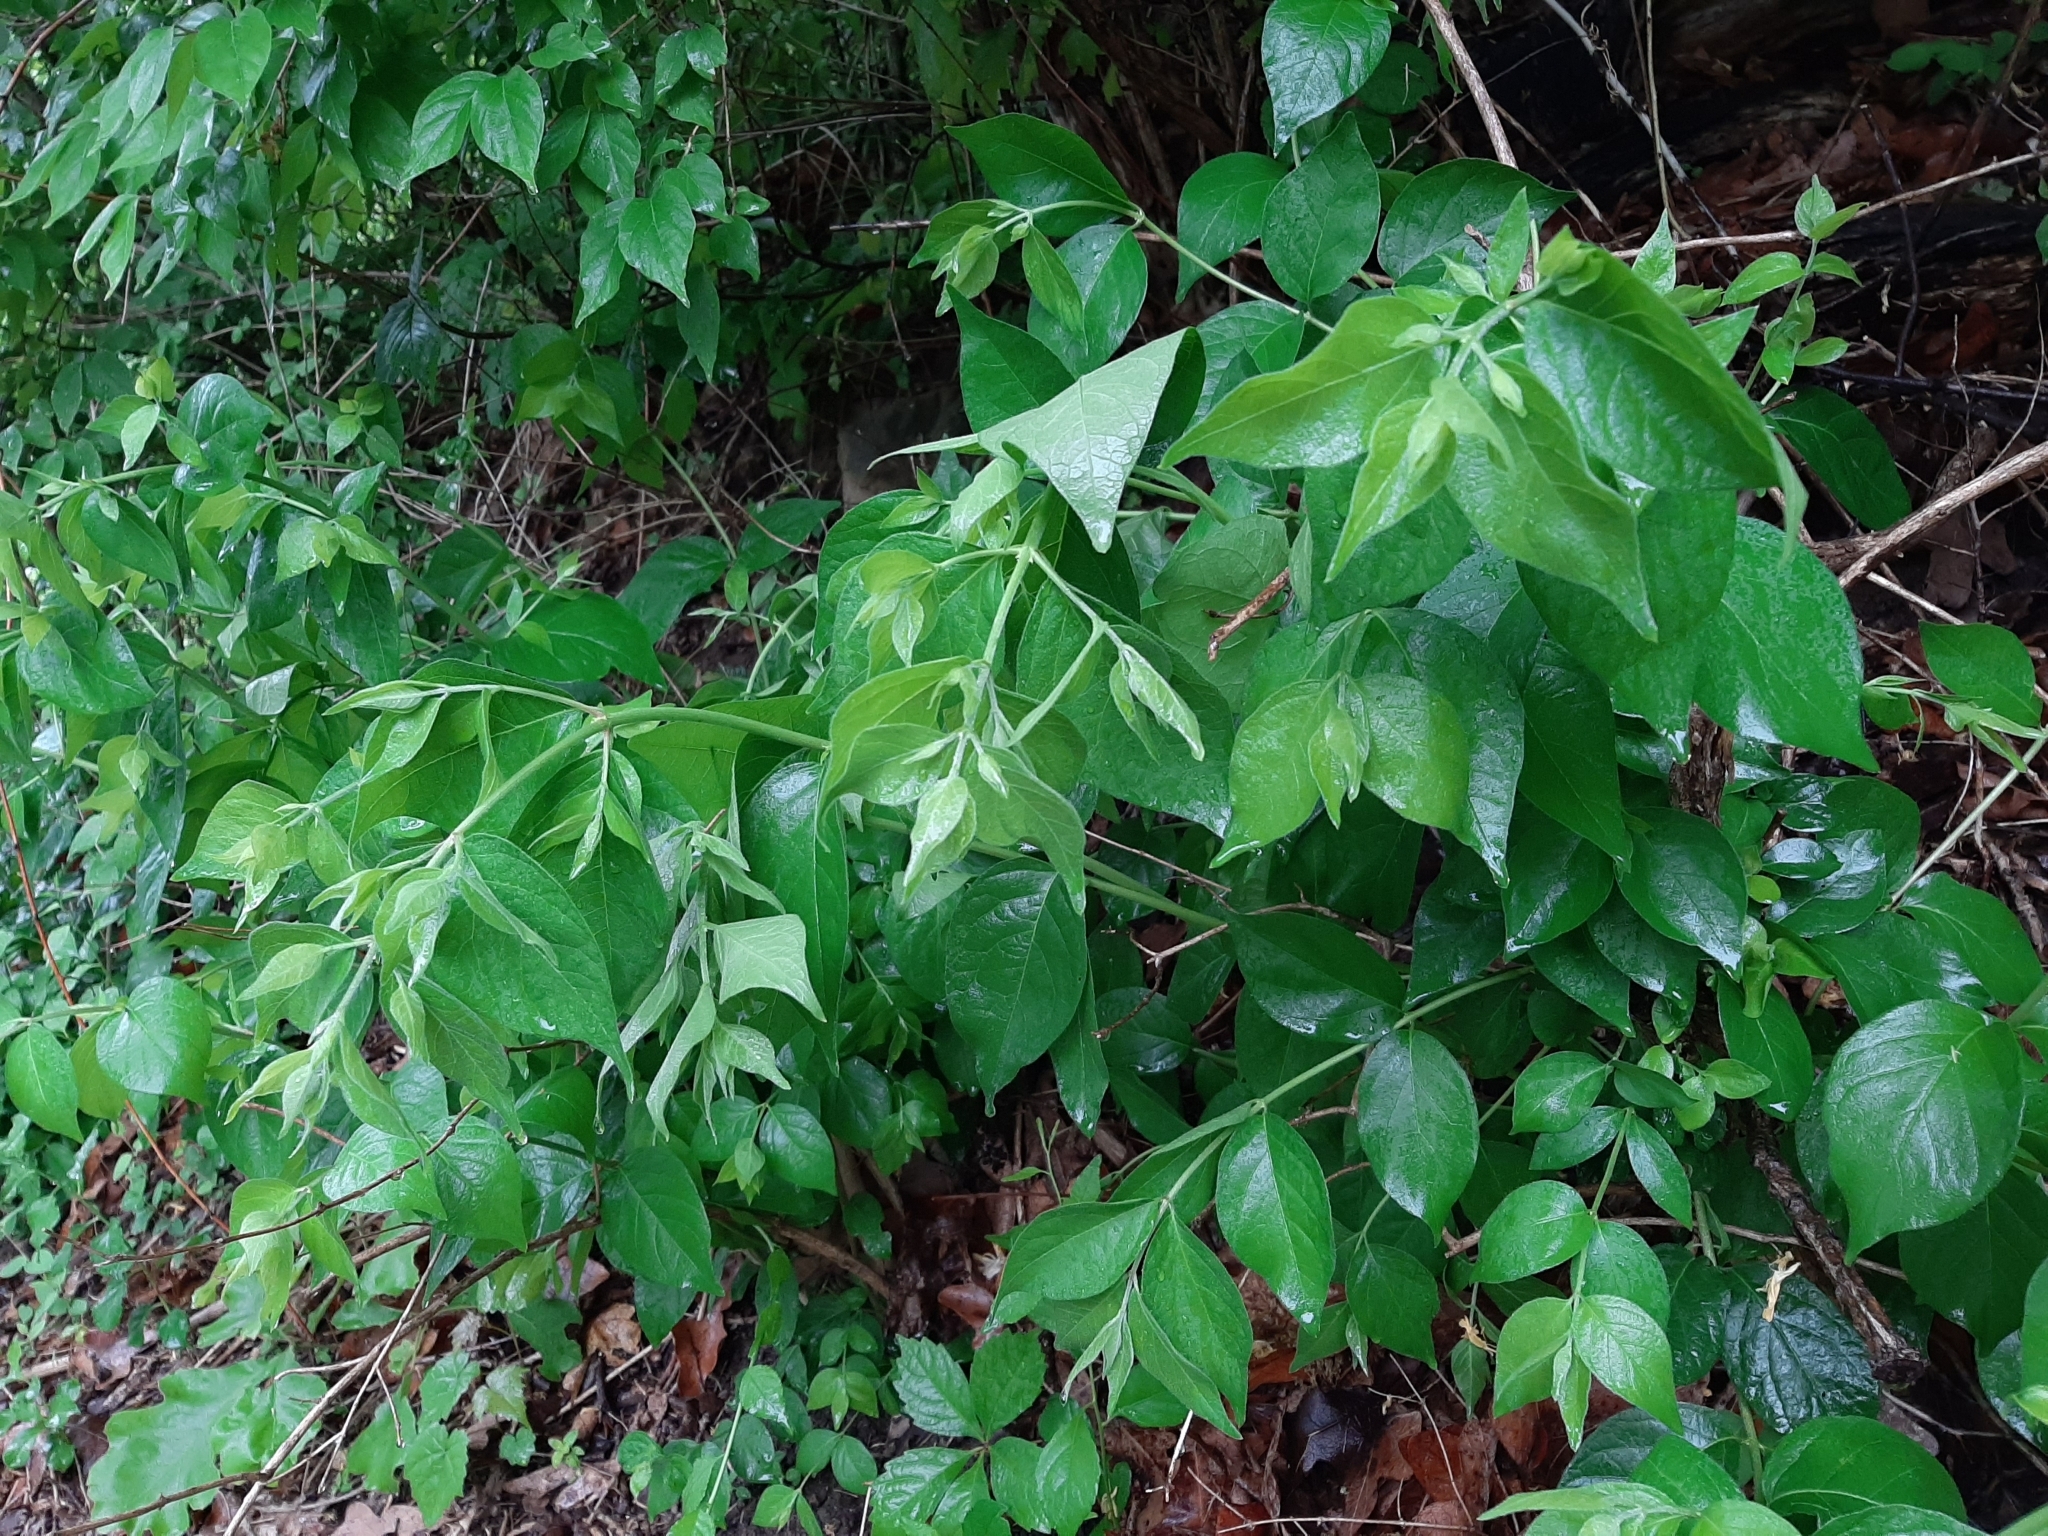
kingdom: Plantae
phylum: Tracheophyta
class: Magnoliopsida
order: Dipsacales
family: Caprifoliaceae
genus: Lonicera
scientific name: Lonicera maackii
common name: Amur honeysuckle
